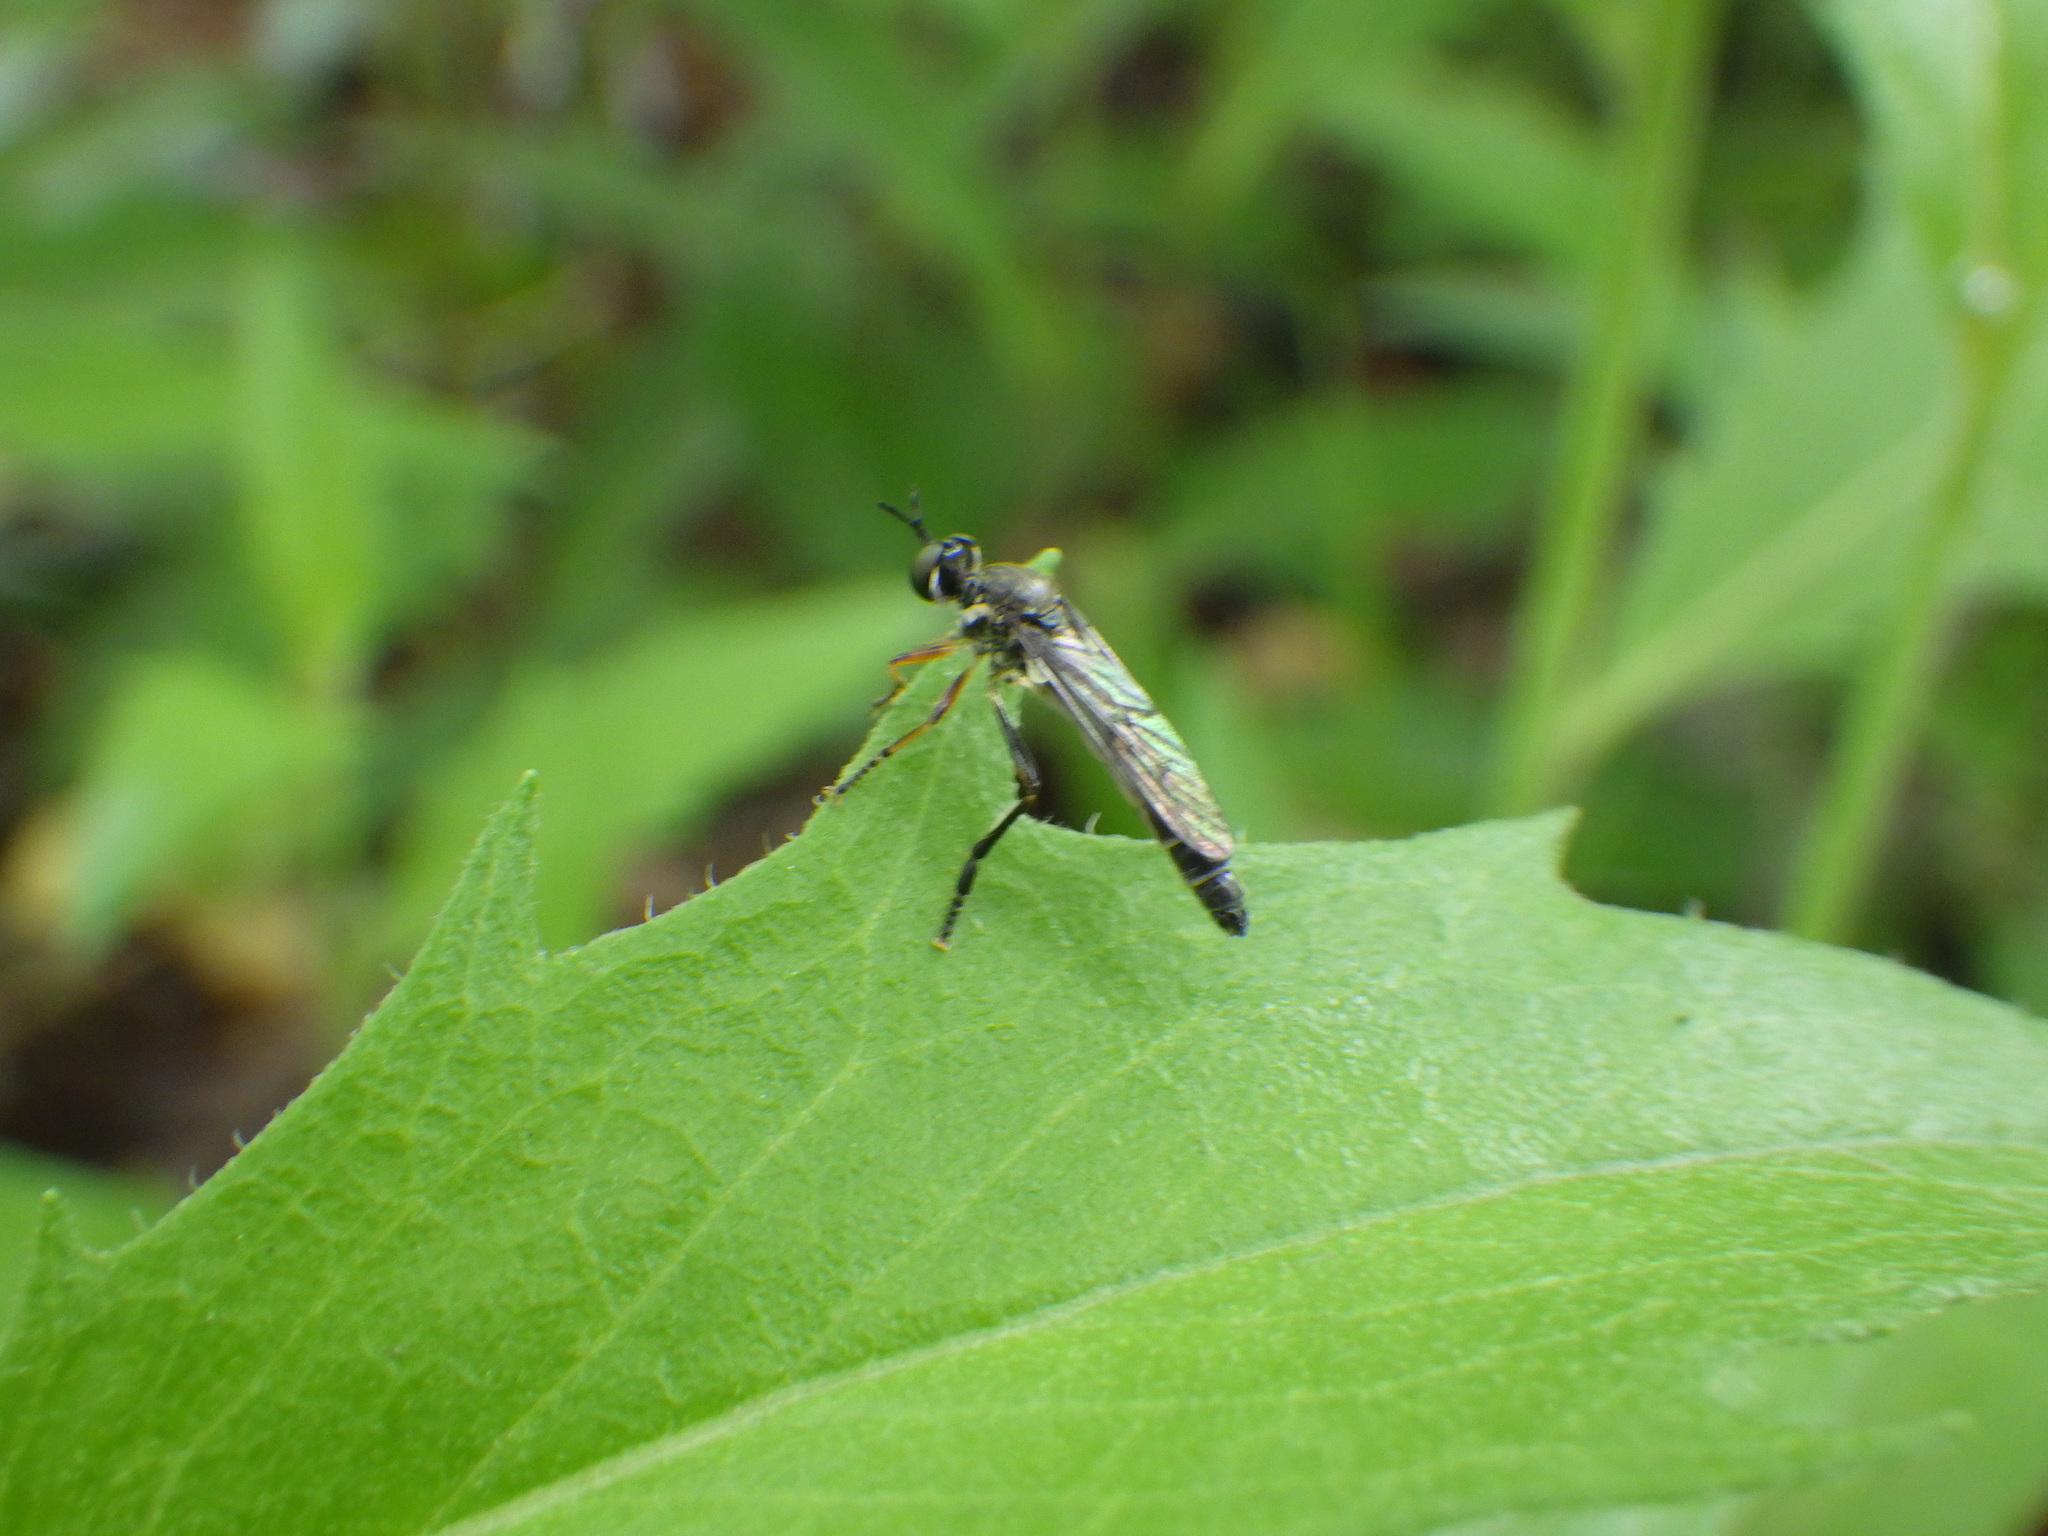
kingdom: Animalia
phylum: Arthropoda
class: Insecta
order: Diptera
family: Asilidae
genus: Dioctria
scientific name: Dioctria hyalipennis
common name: Stripe-legged robberfly
